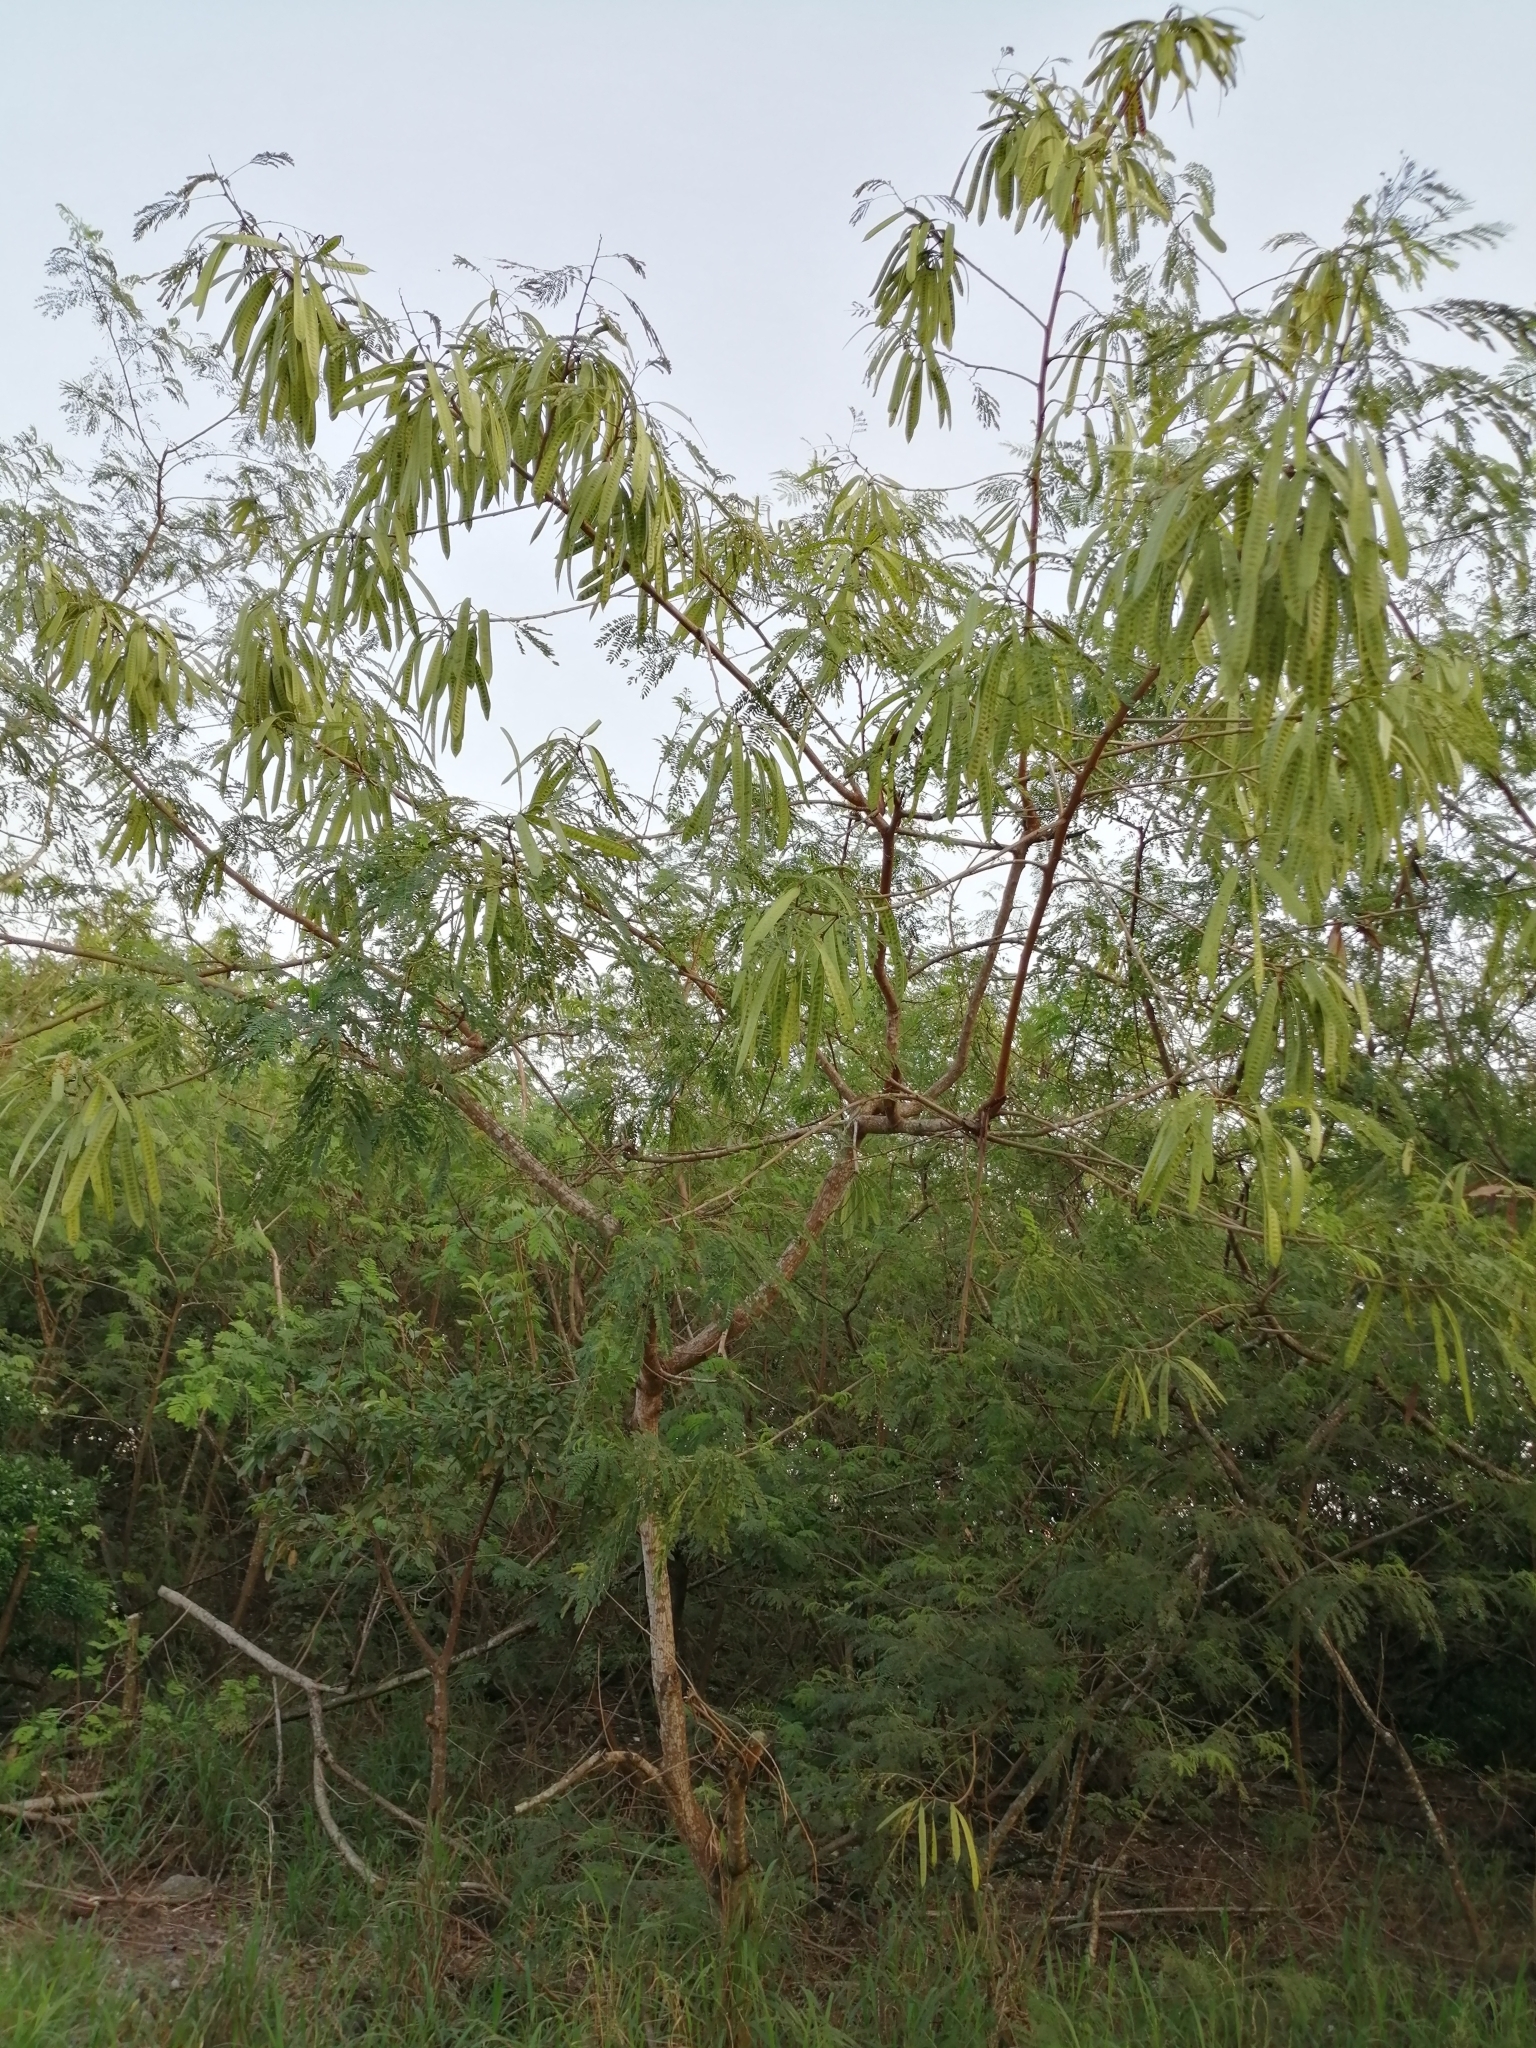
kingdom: Plantae
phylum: Tracheophyta
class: Magnoliopsida
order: Fabales
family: Fabaceae
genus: Leucaena
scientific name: Leucaena leucocephala
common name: White leadtree
